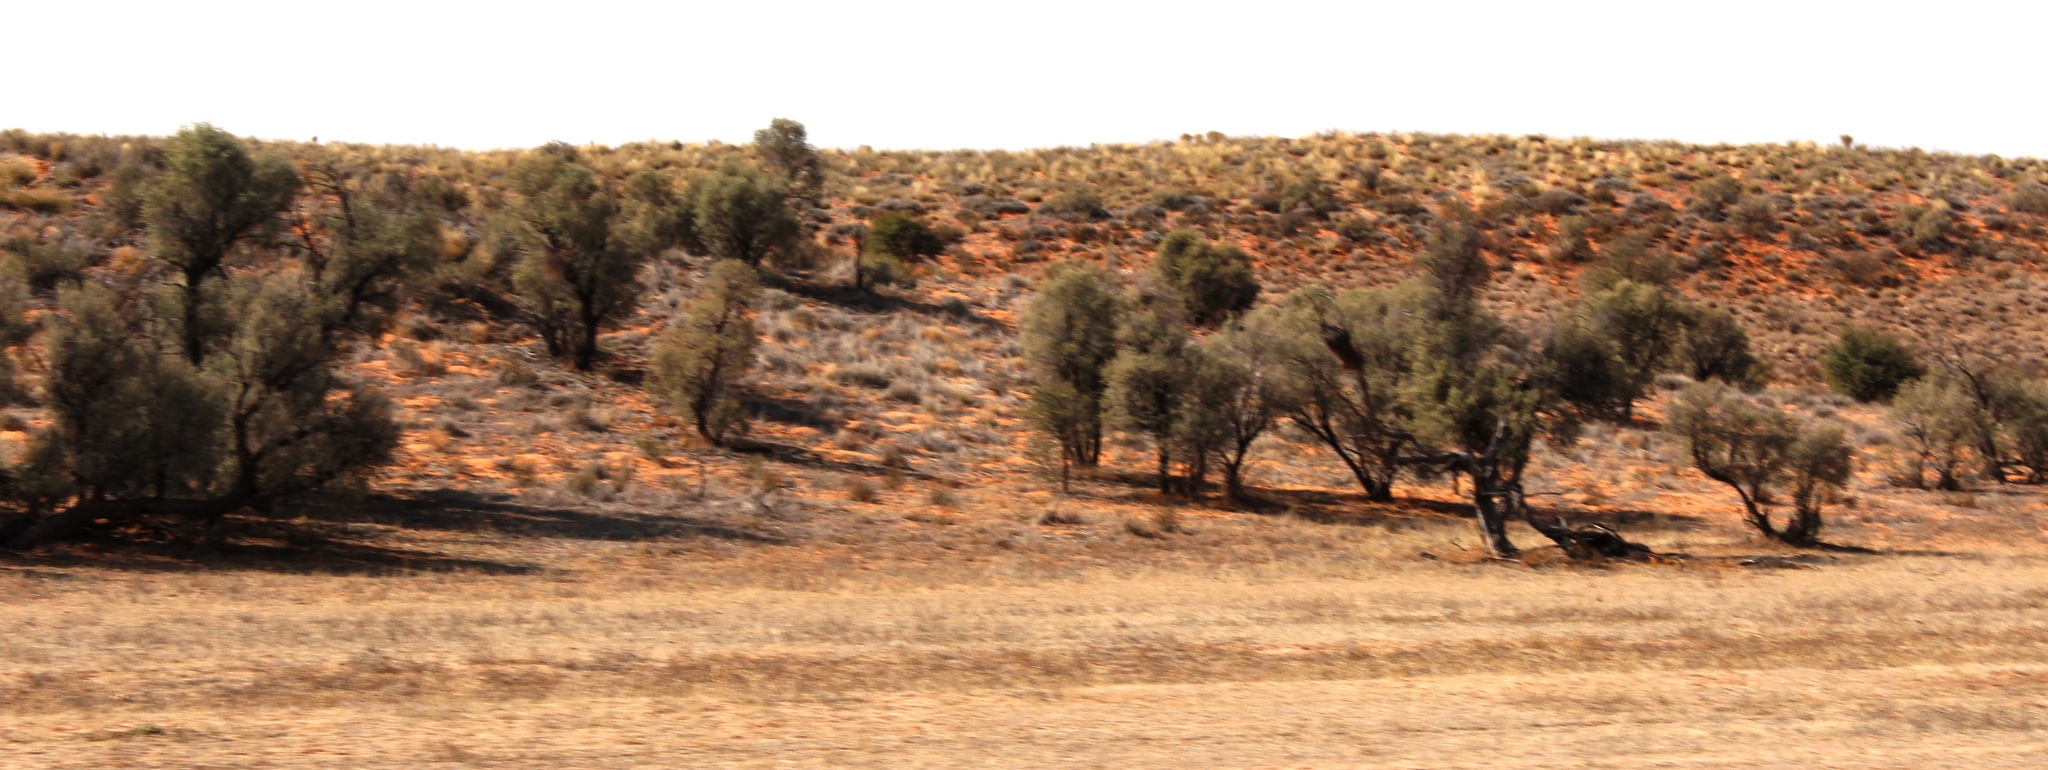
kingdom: Plantae
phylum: Tracheophyta
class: Magnoliopsida
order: Fabales
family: Fabaceae
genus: Vachellia
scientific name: Vachellia haematoxylon
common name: Grey camel thorn
